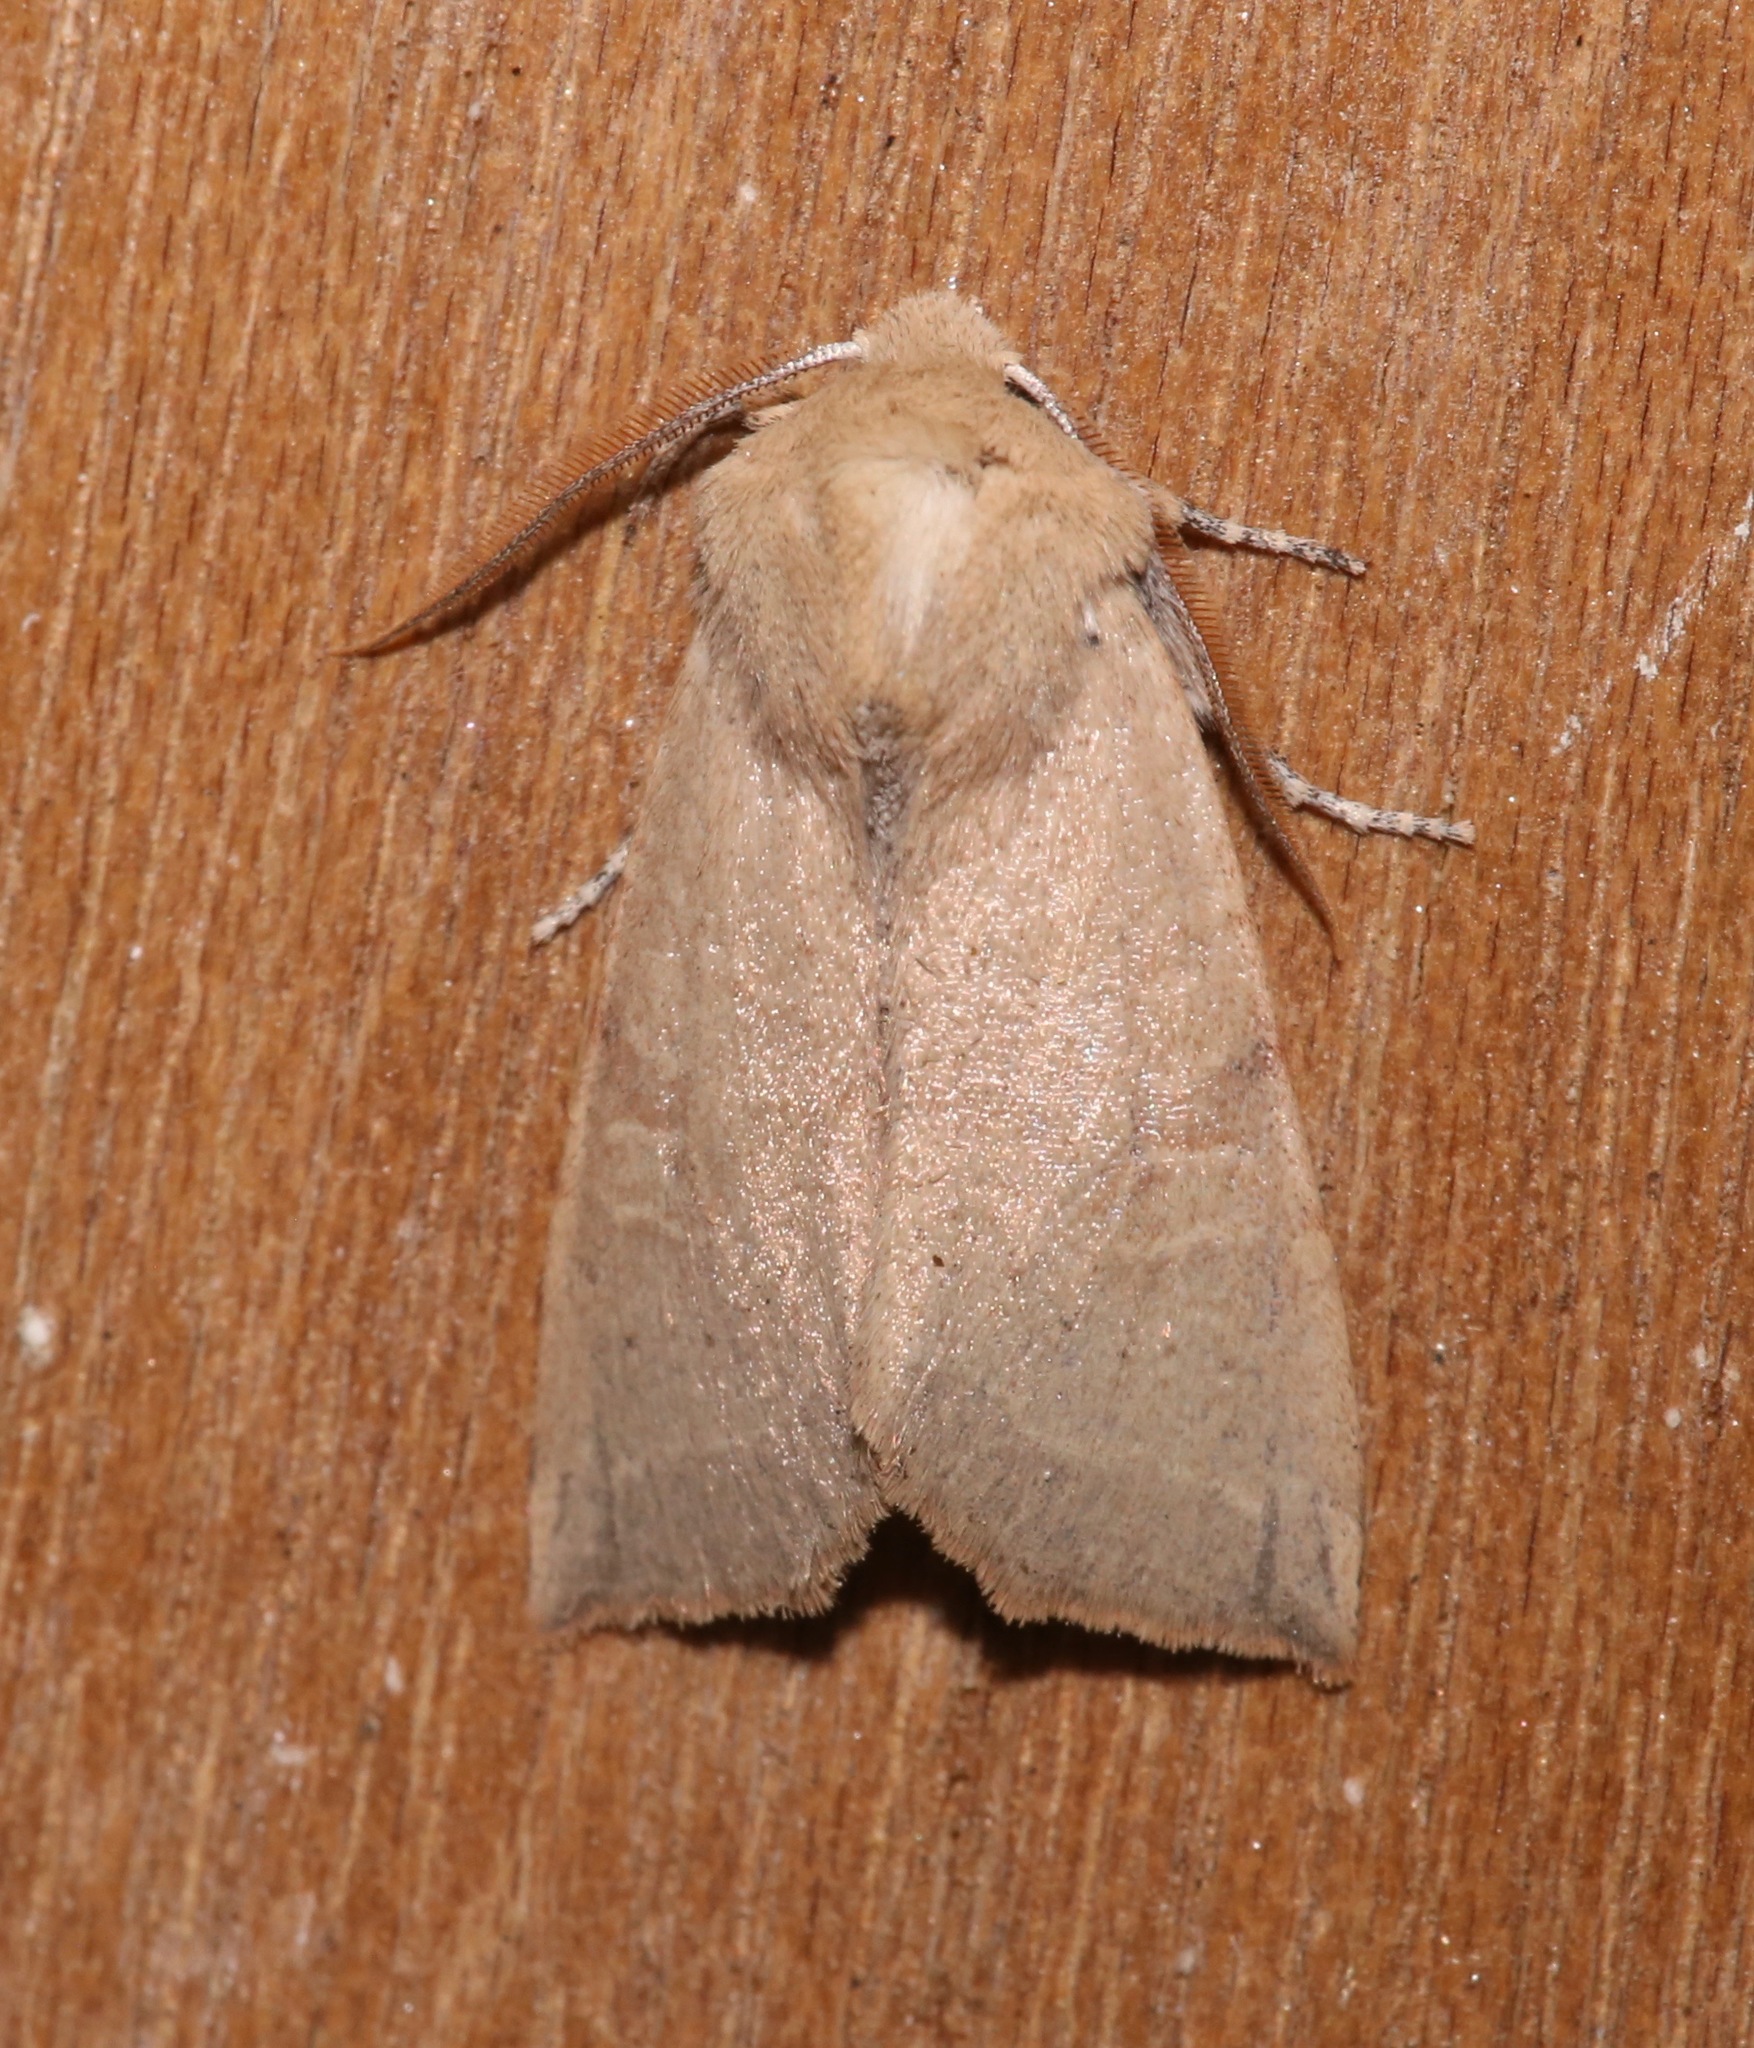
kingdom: Animalia
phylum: Arthropoda
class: Insecta
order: Lepidoptera
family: Noctuidae
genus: Perigonica
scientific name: Perigonica fulminans
